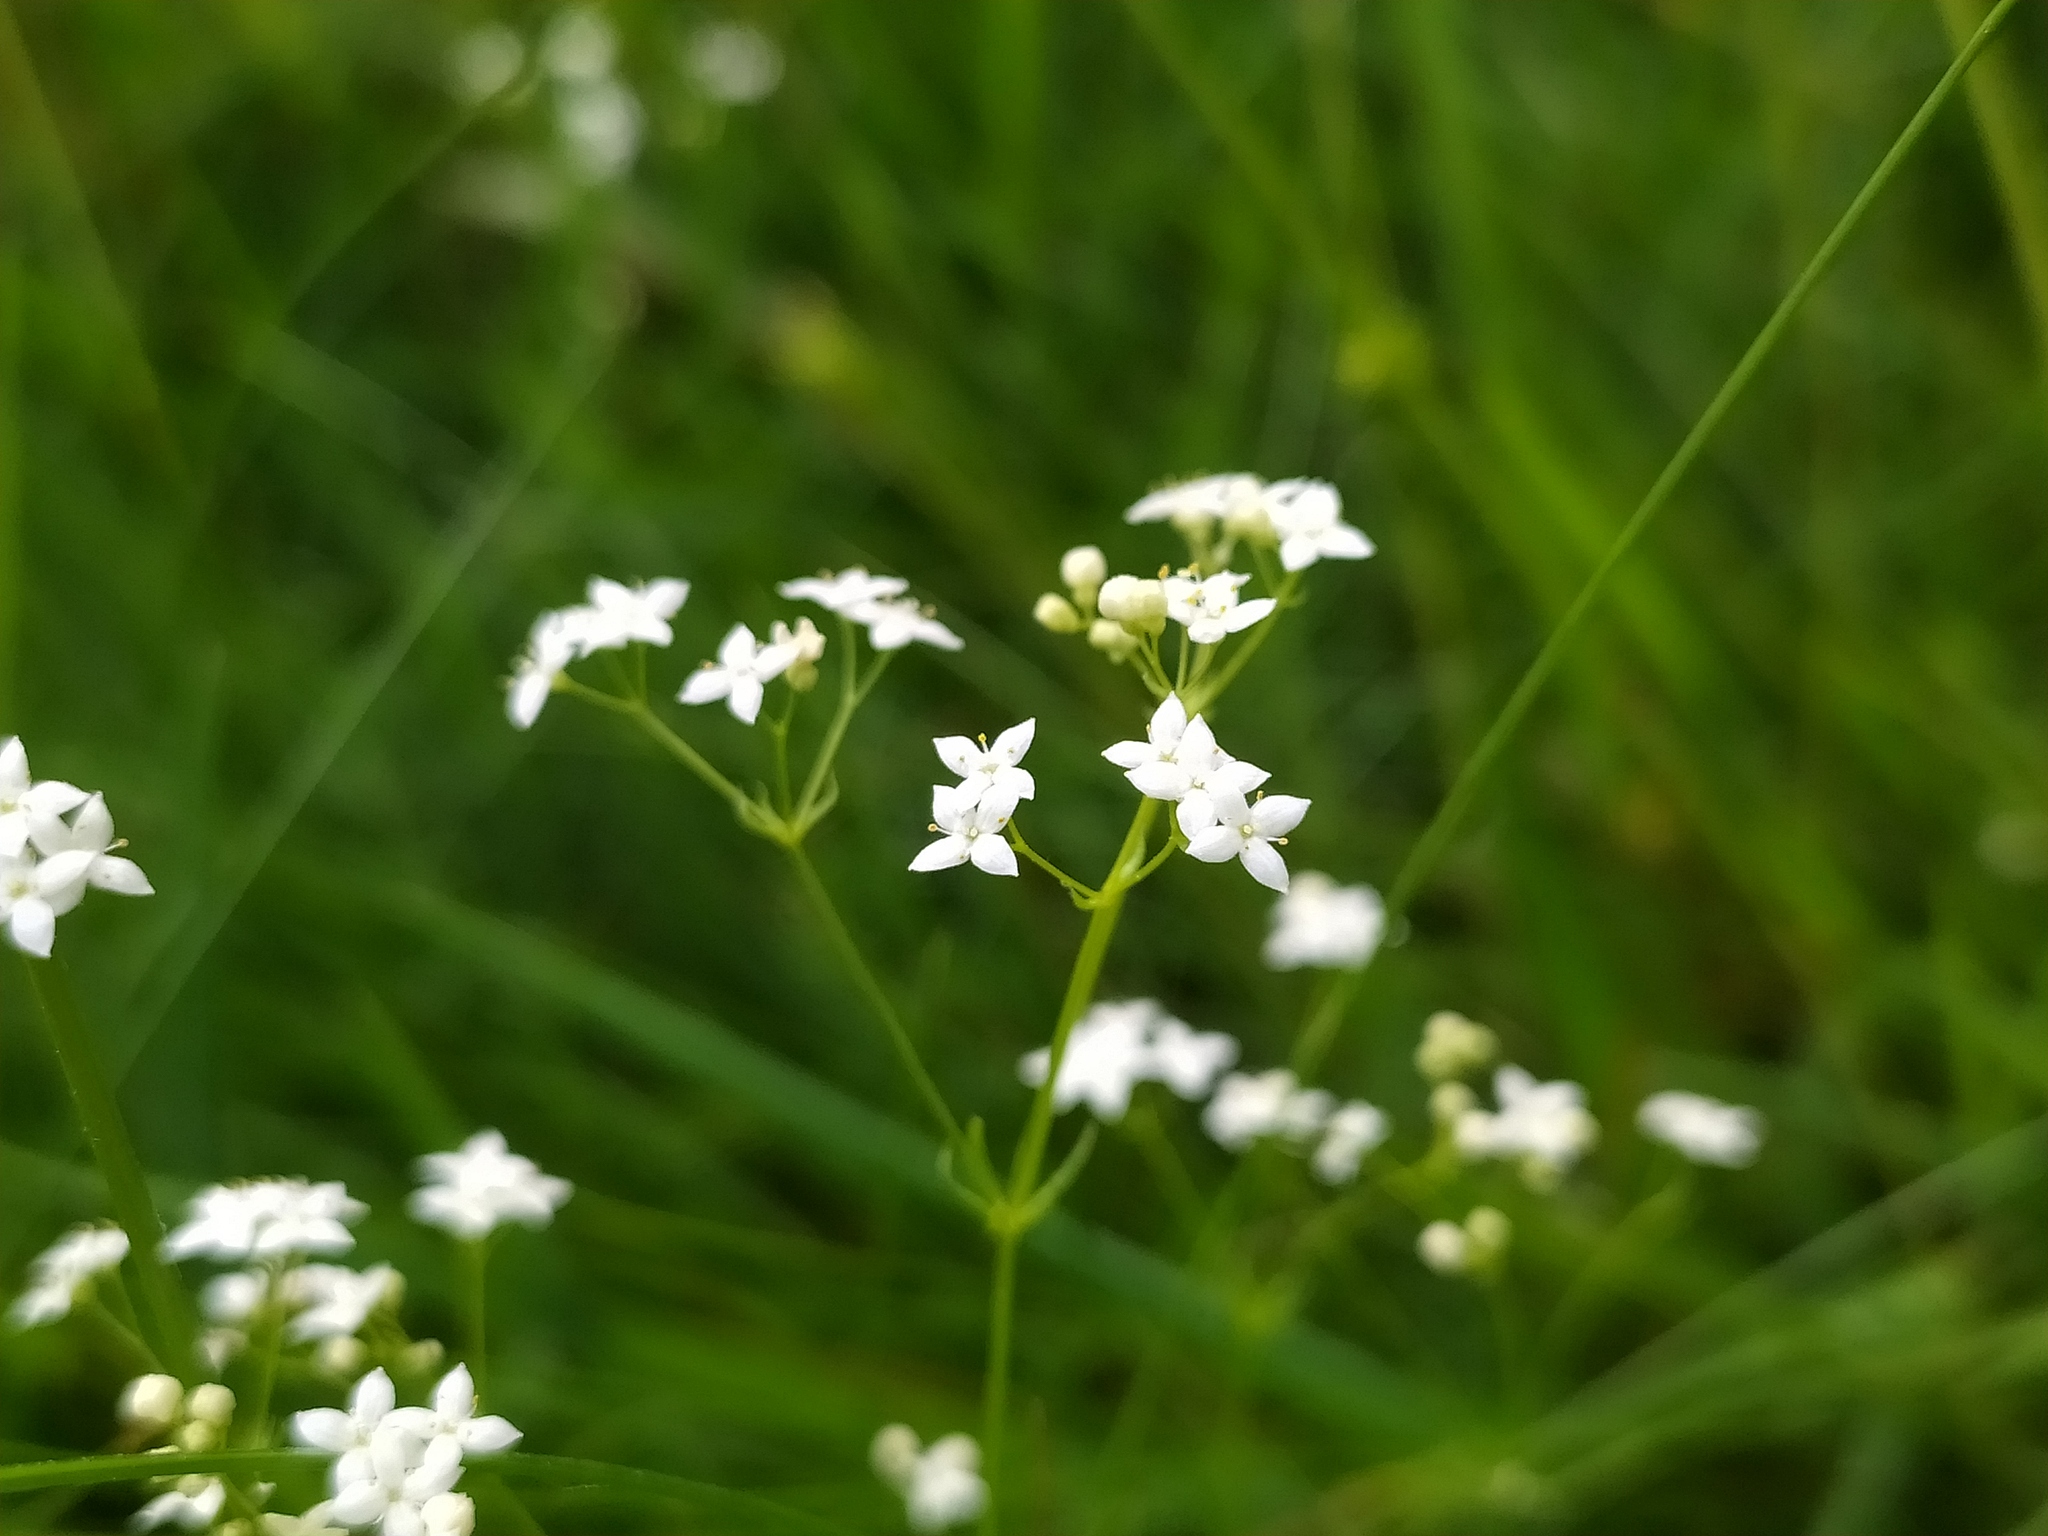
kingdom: Plantae
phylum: Tracheophyta
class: Magnoliopsida
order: Gentianales
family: Rubiaceae
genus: Galium
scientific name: Galium pumilum
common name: Slender bedstraw
